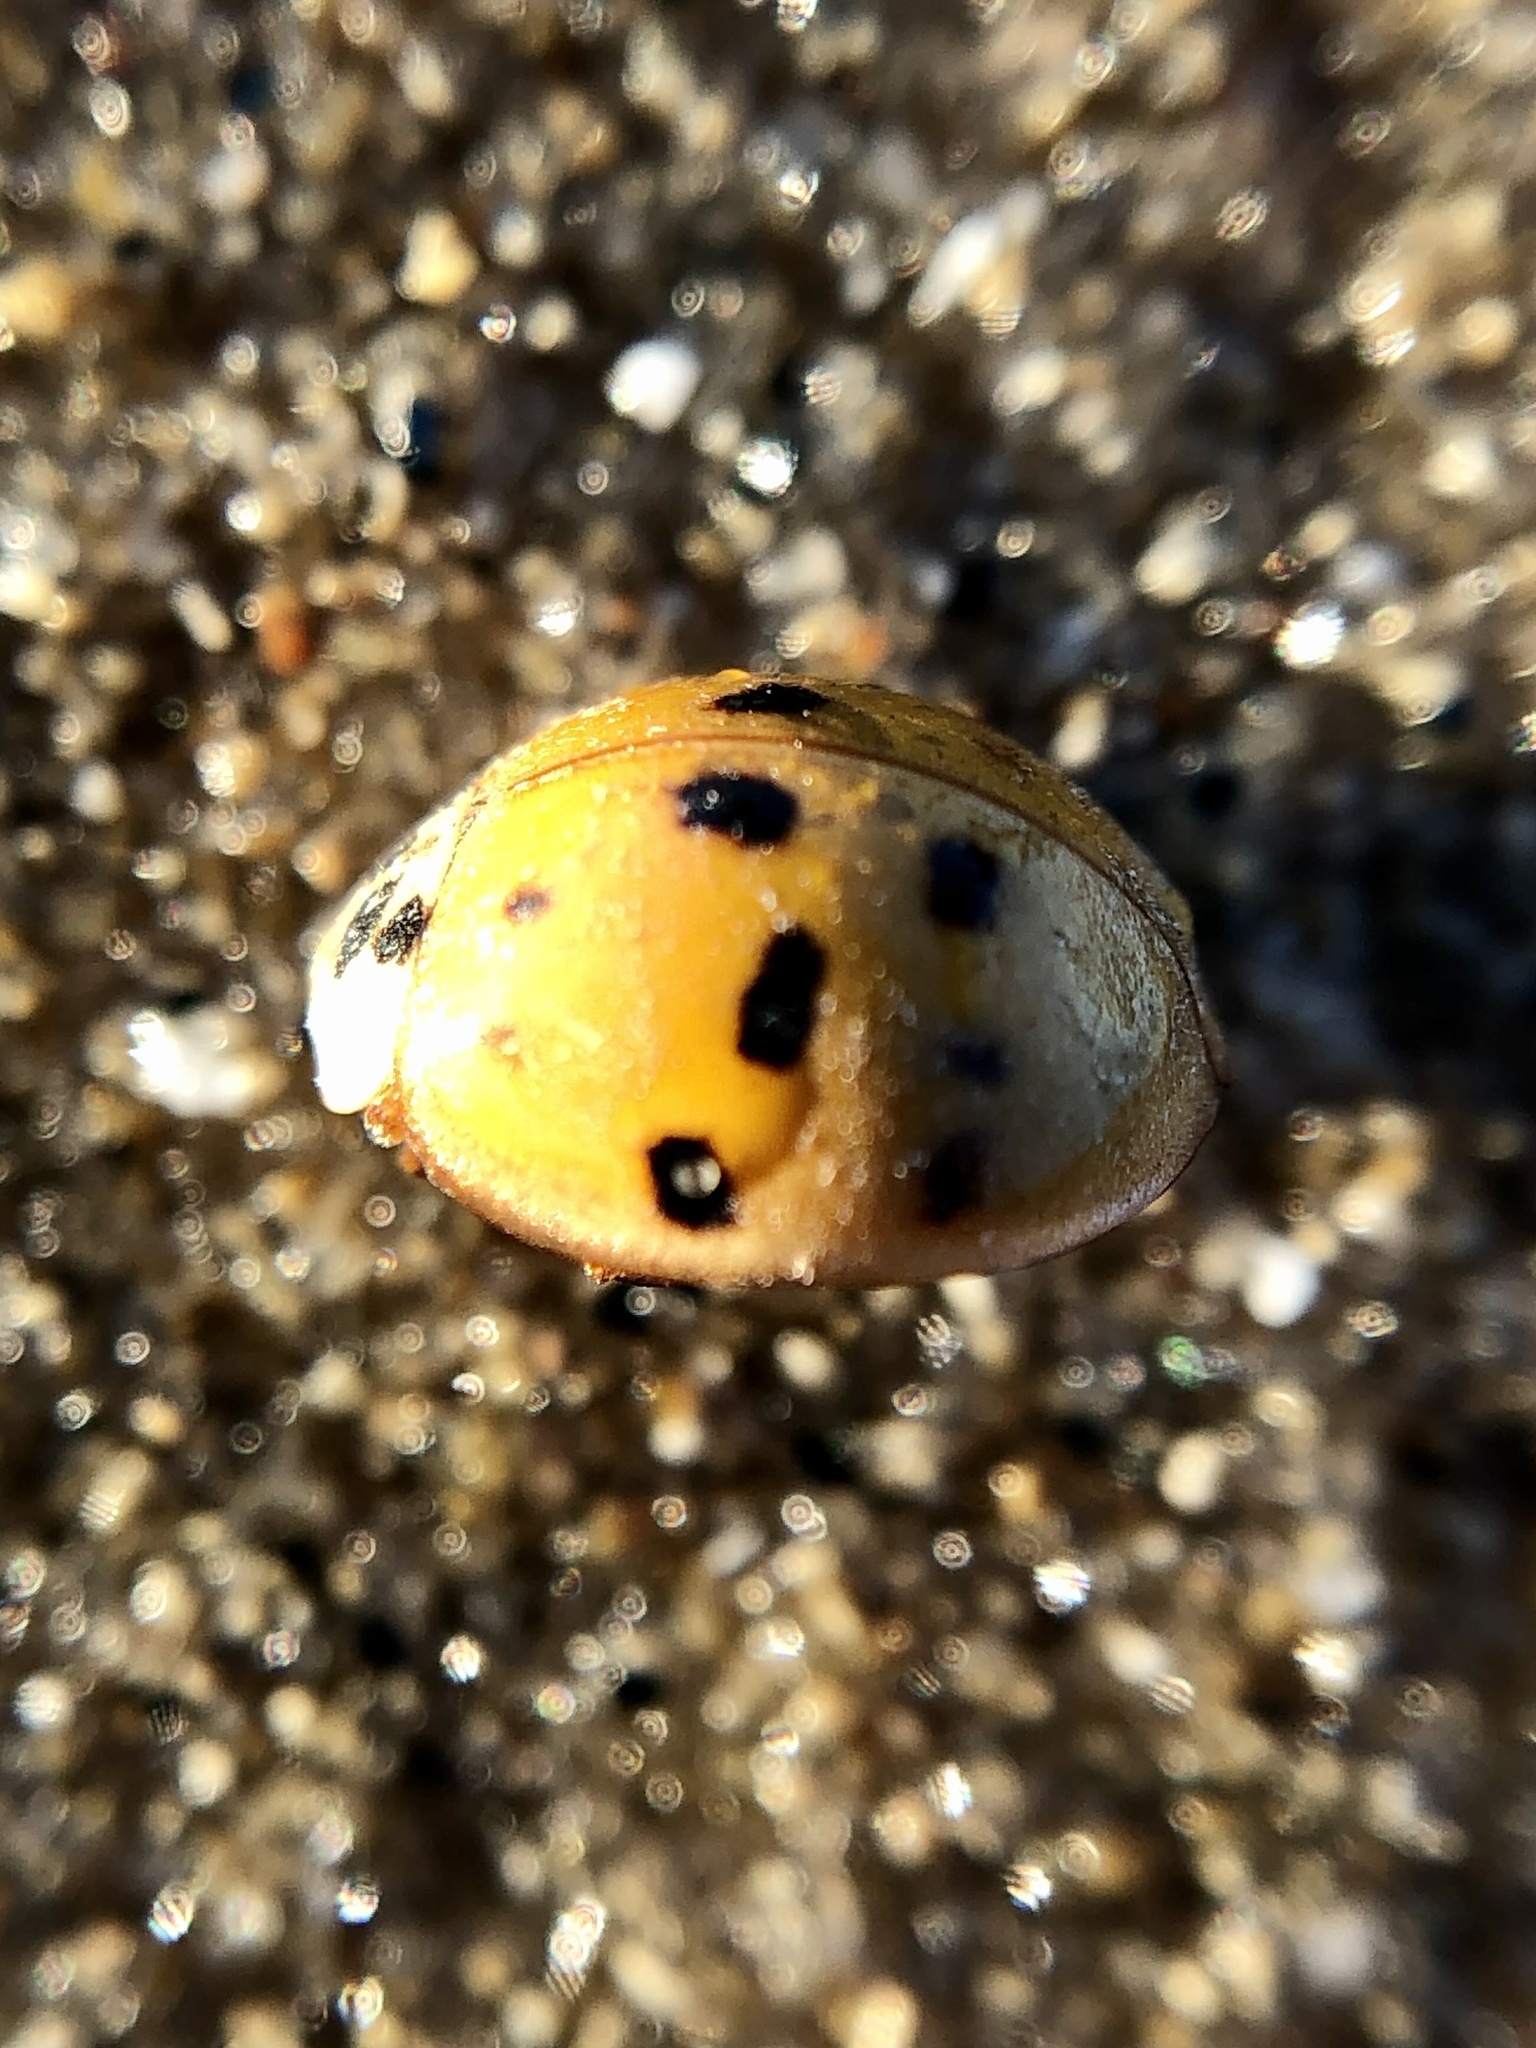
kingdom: Animalia
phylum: Arthropoda
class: Insecta
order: Coleoptera
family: Coccinellidae
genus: Harmonia
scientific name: Harmonia axyridis
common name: Harlequin ladybird
